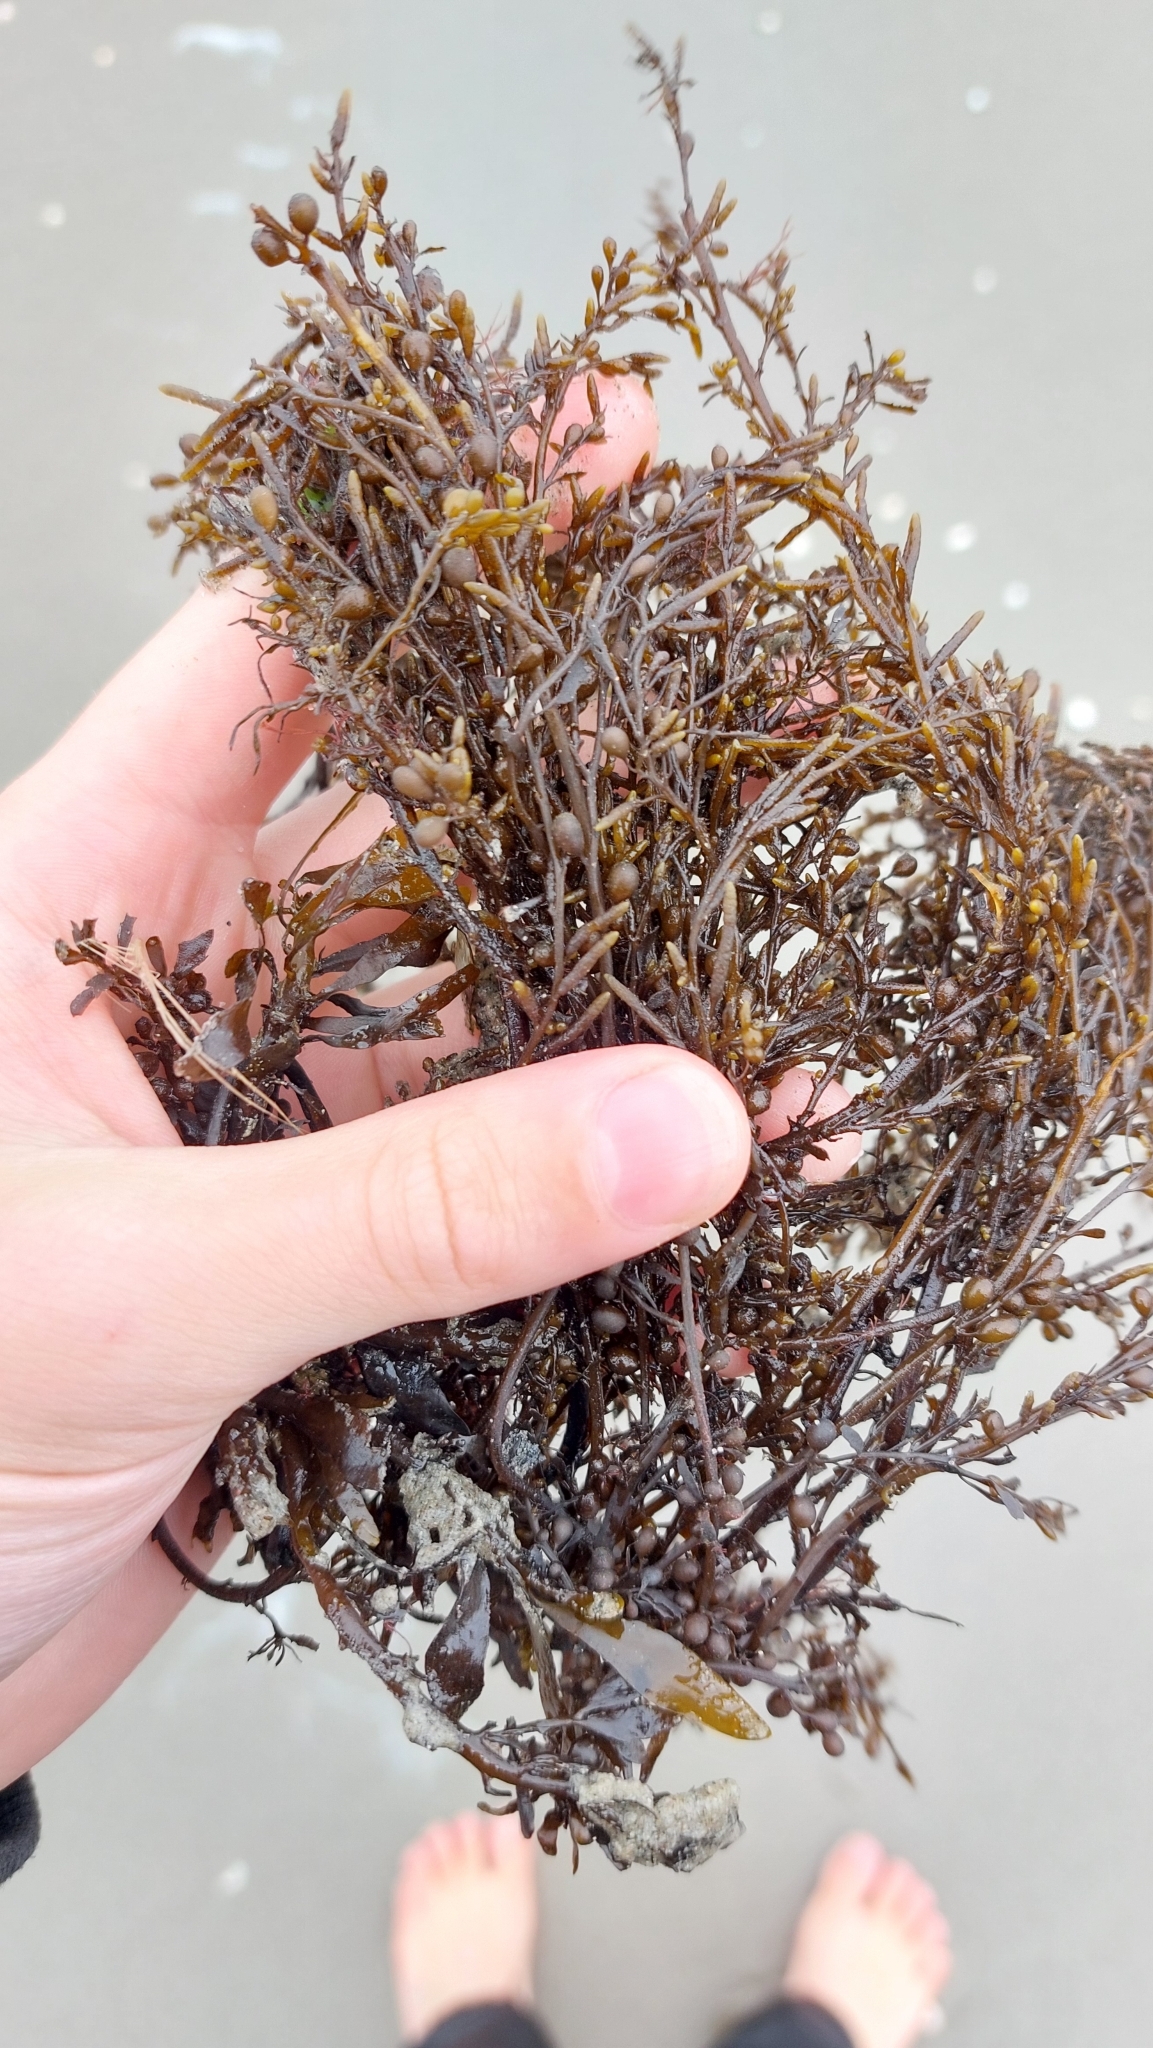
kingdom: Chromista
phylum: Ochrophyta
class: Phaeophyceae
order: Fucales
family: Sargassaceae
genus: Sargassum
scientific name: Sargassum muticum
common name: Japweed
